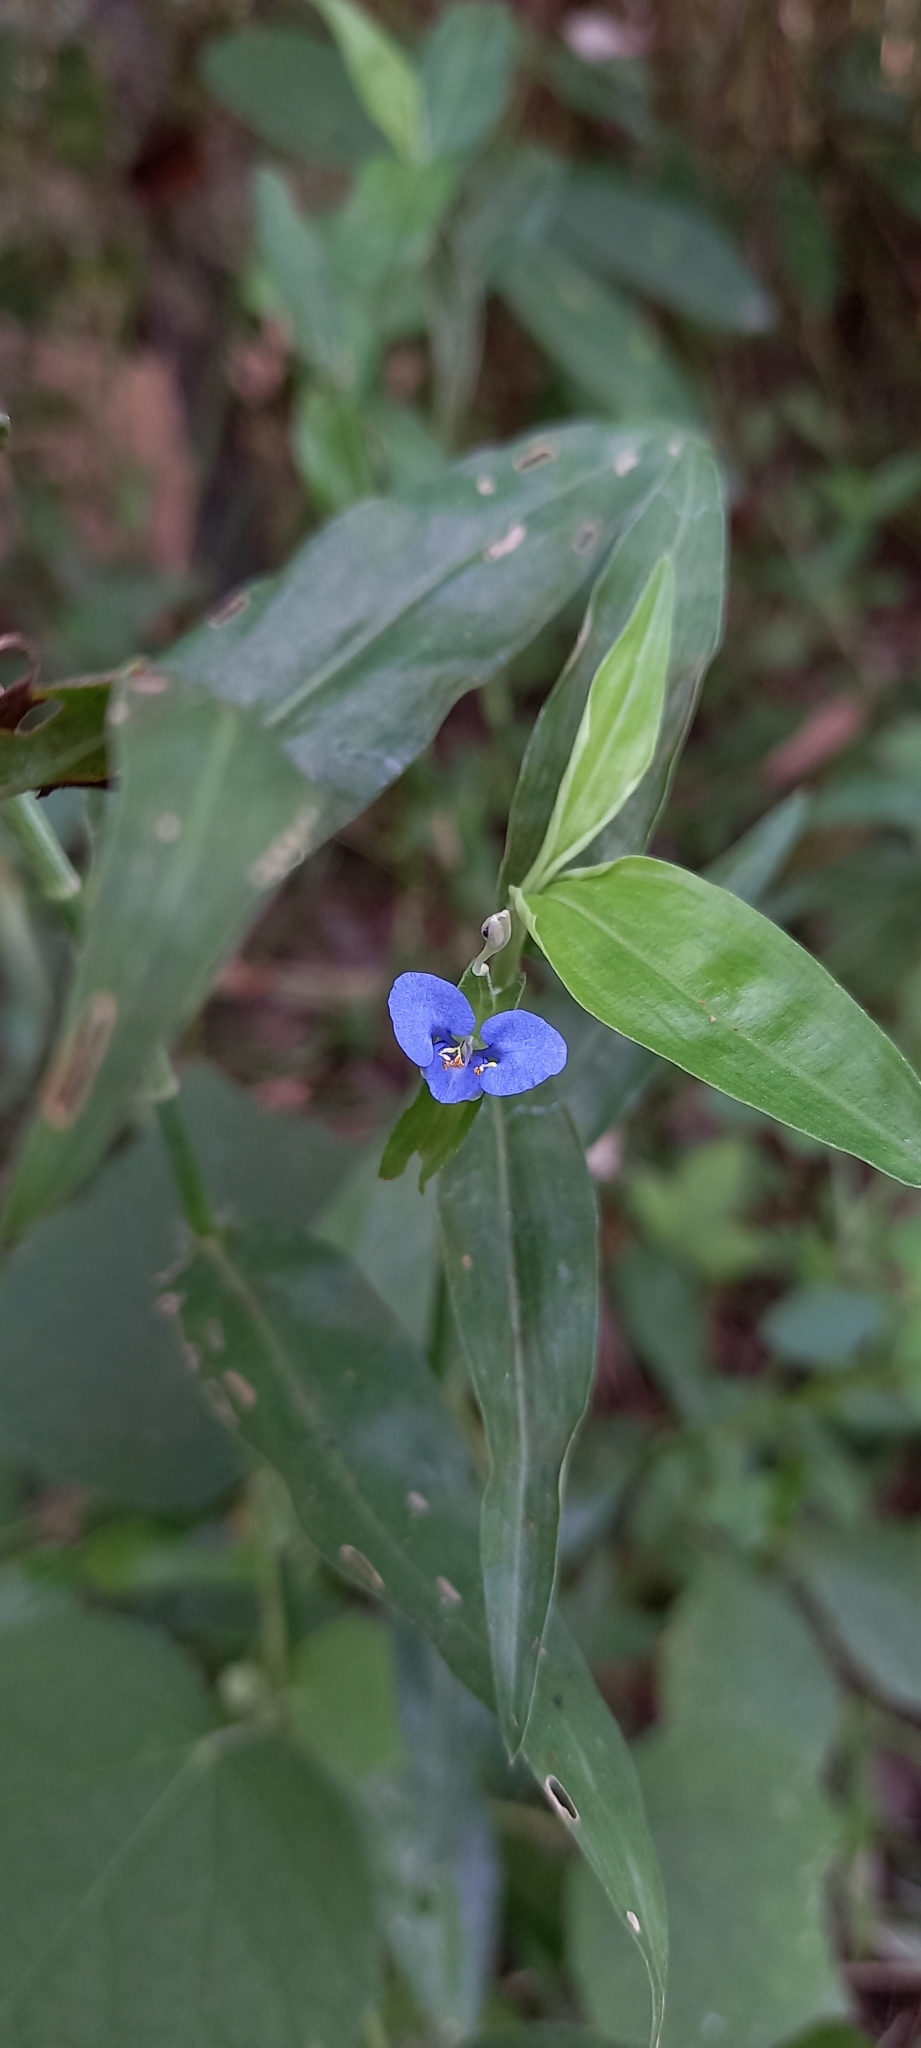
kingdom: Plantae
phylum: Tracheophyta
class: Liliopsida
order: Commelinales
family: Commelinaceae
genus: Commelina
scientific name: Commelina diffusa
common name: Climbing dayflower
